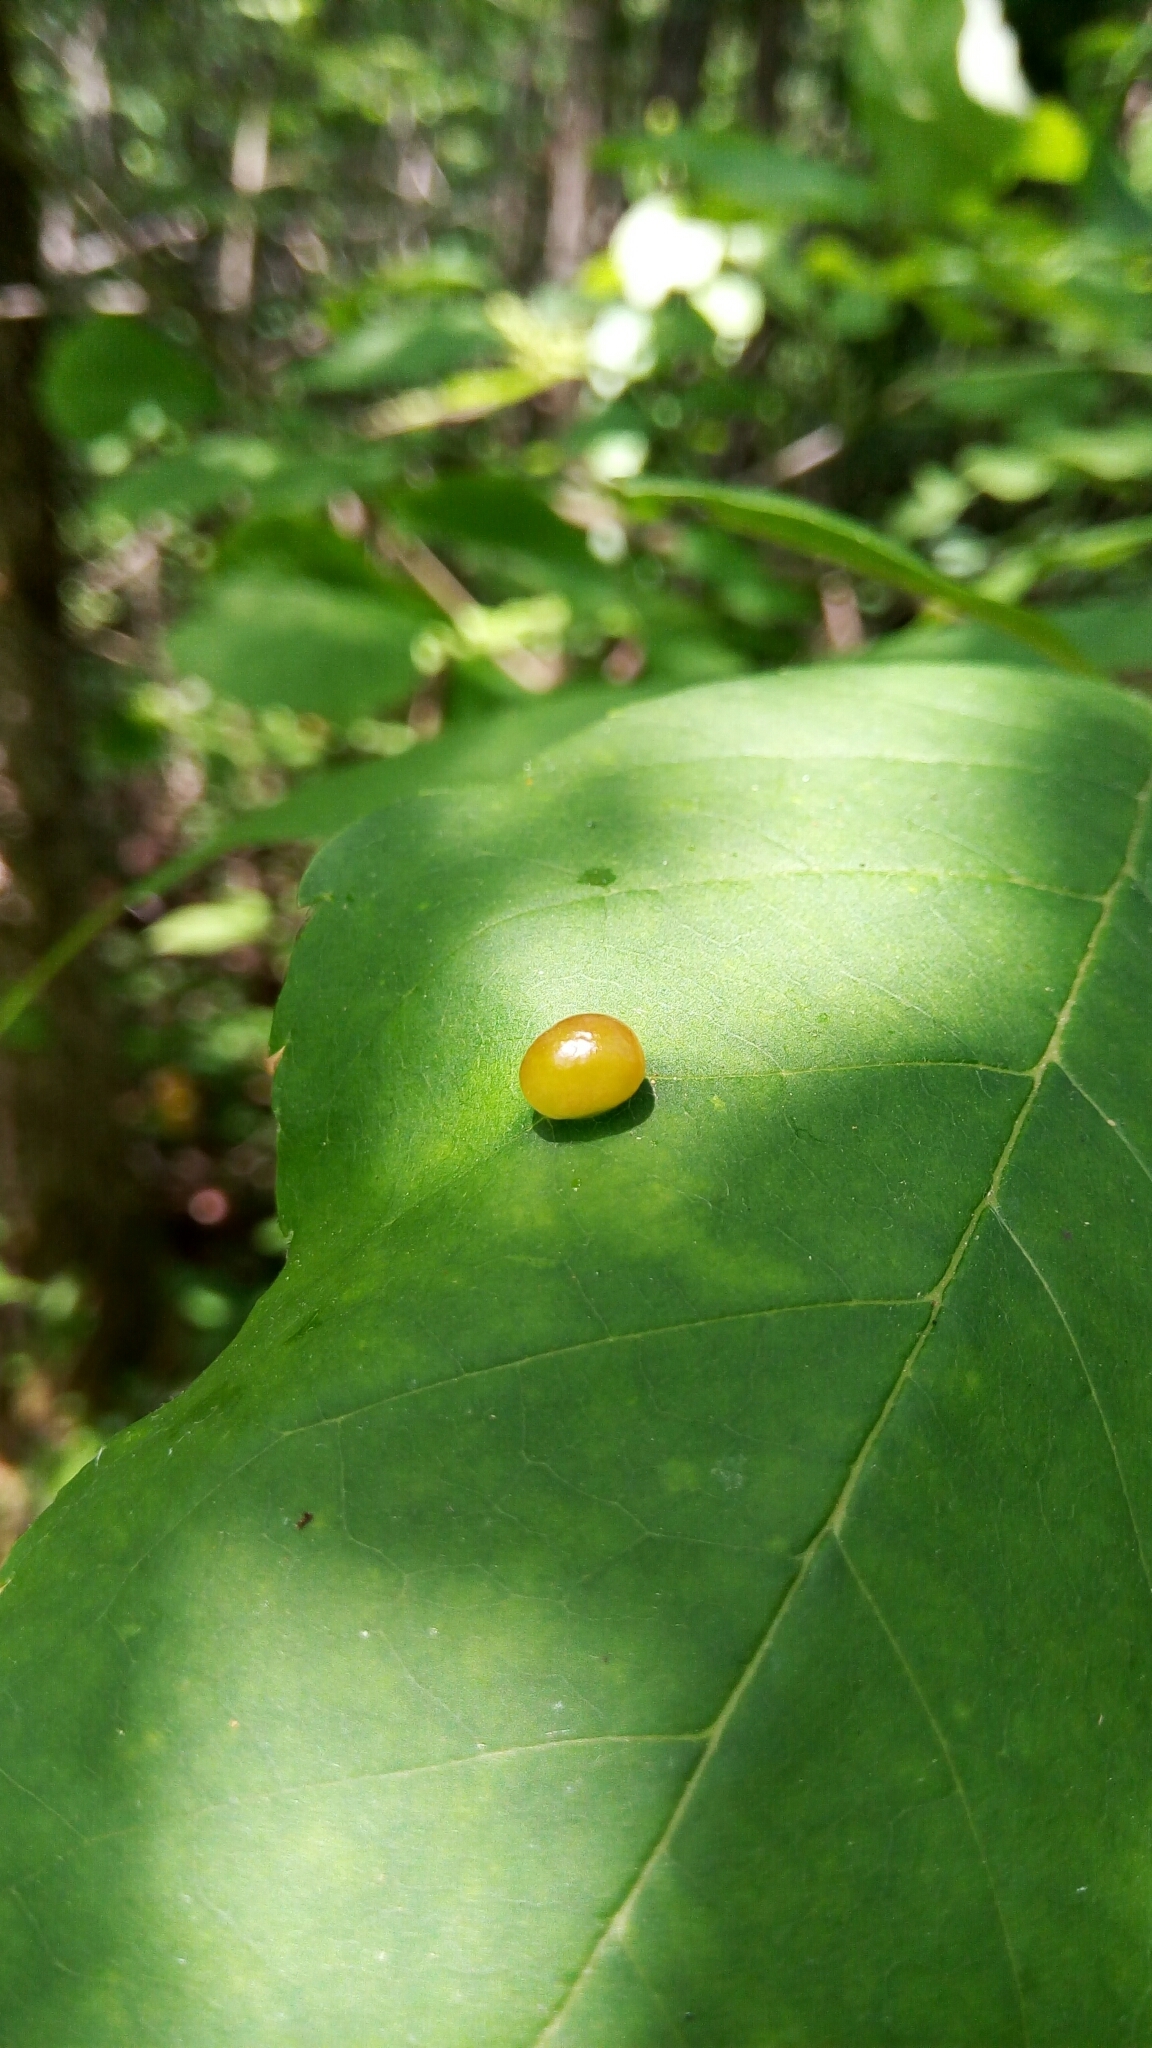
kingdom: Animalia
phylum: Arthropoda
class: Insecta
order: Diptera
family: Cecidomyiidae
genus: Dasineura
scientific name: Dasineura pellex
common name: Ash bullet gall midge
